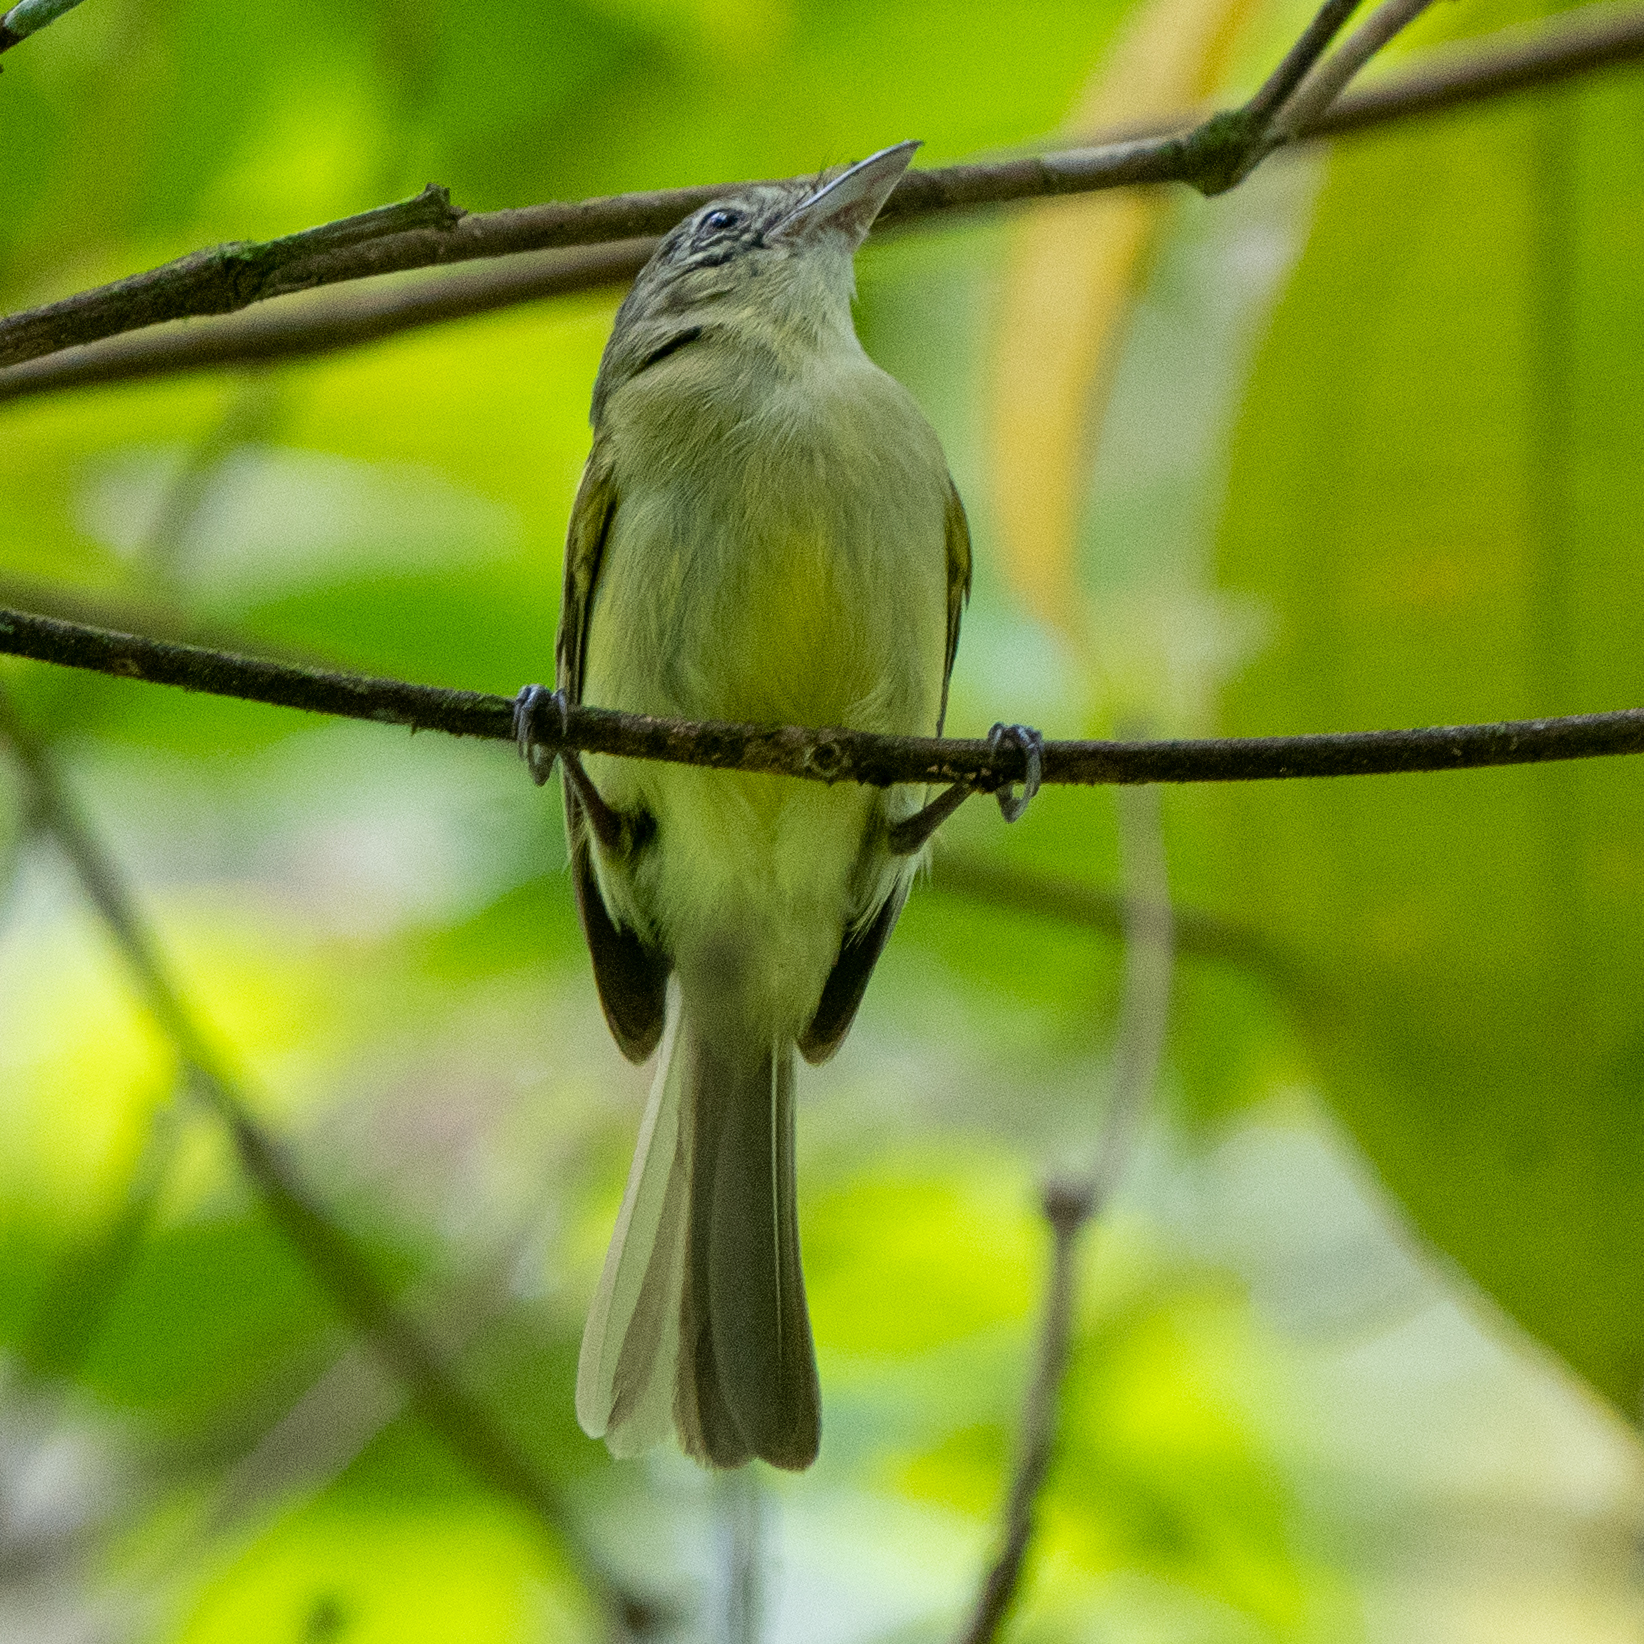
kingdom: Animalia
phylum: Chordata
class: Aves
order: Passeriformes
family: Tyrannidae
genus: Tolmomyias
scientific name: Tolmomyias sulphurescens
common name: Yellow-olive flycatcher
